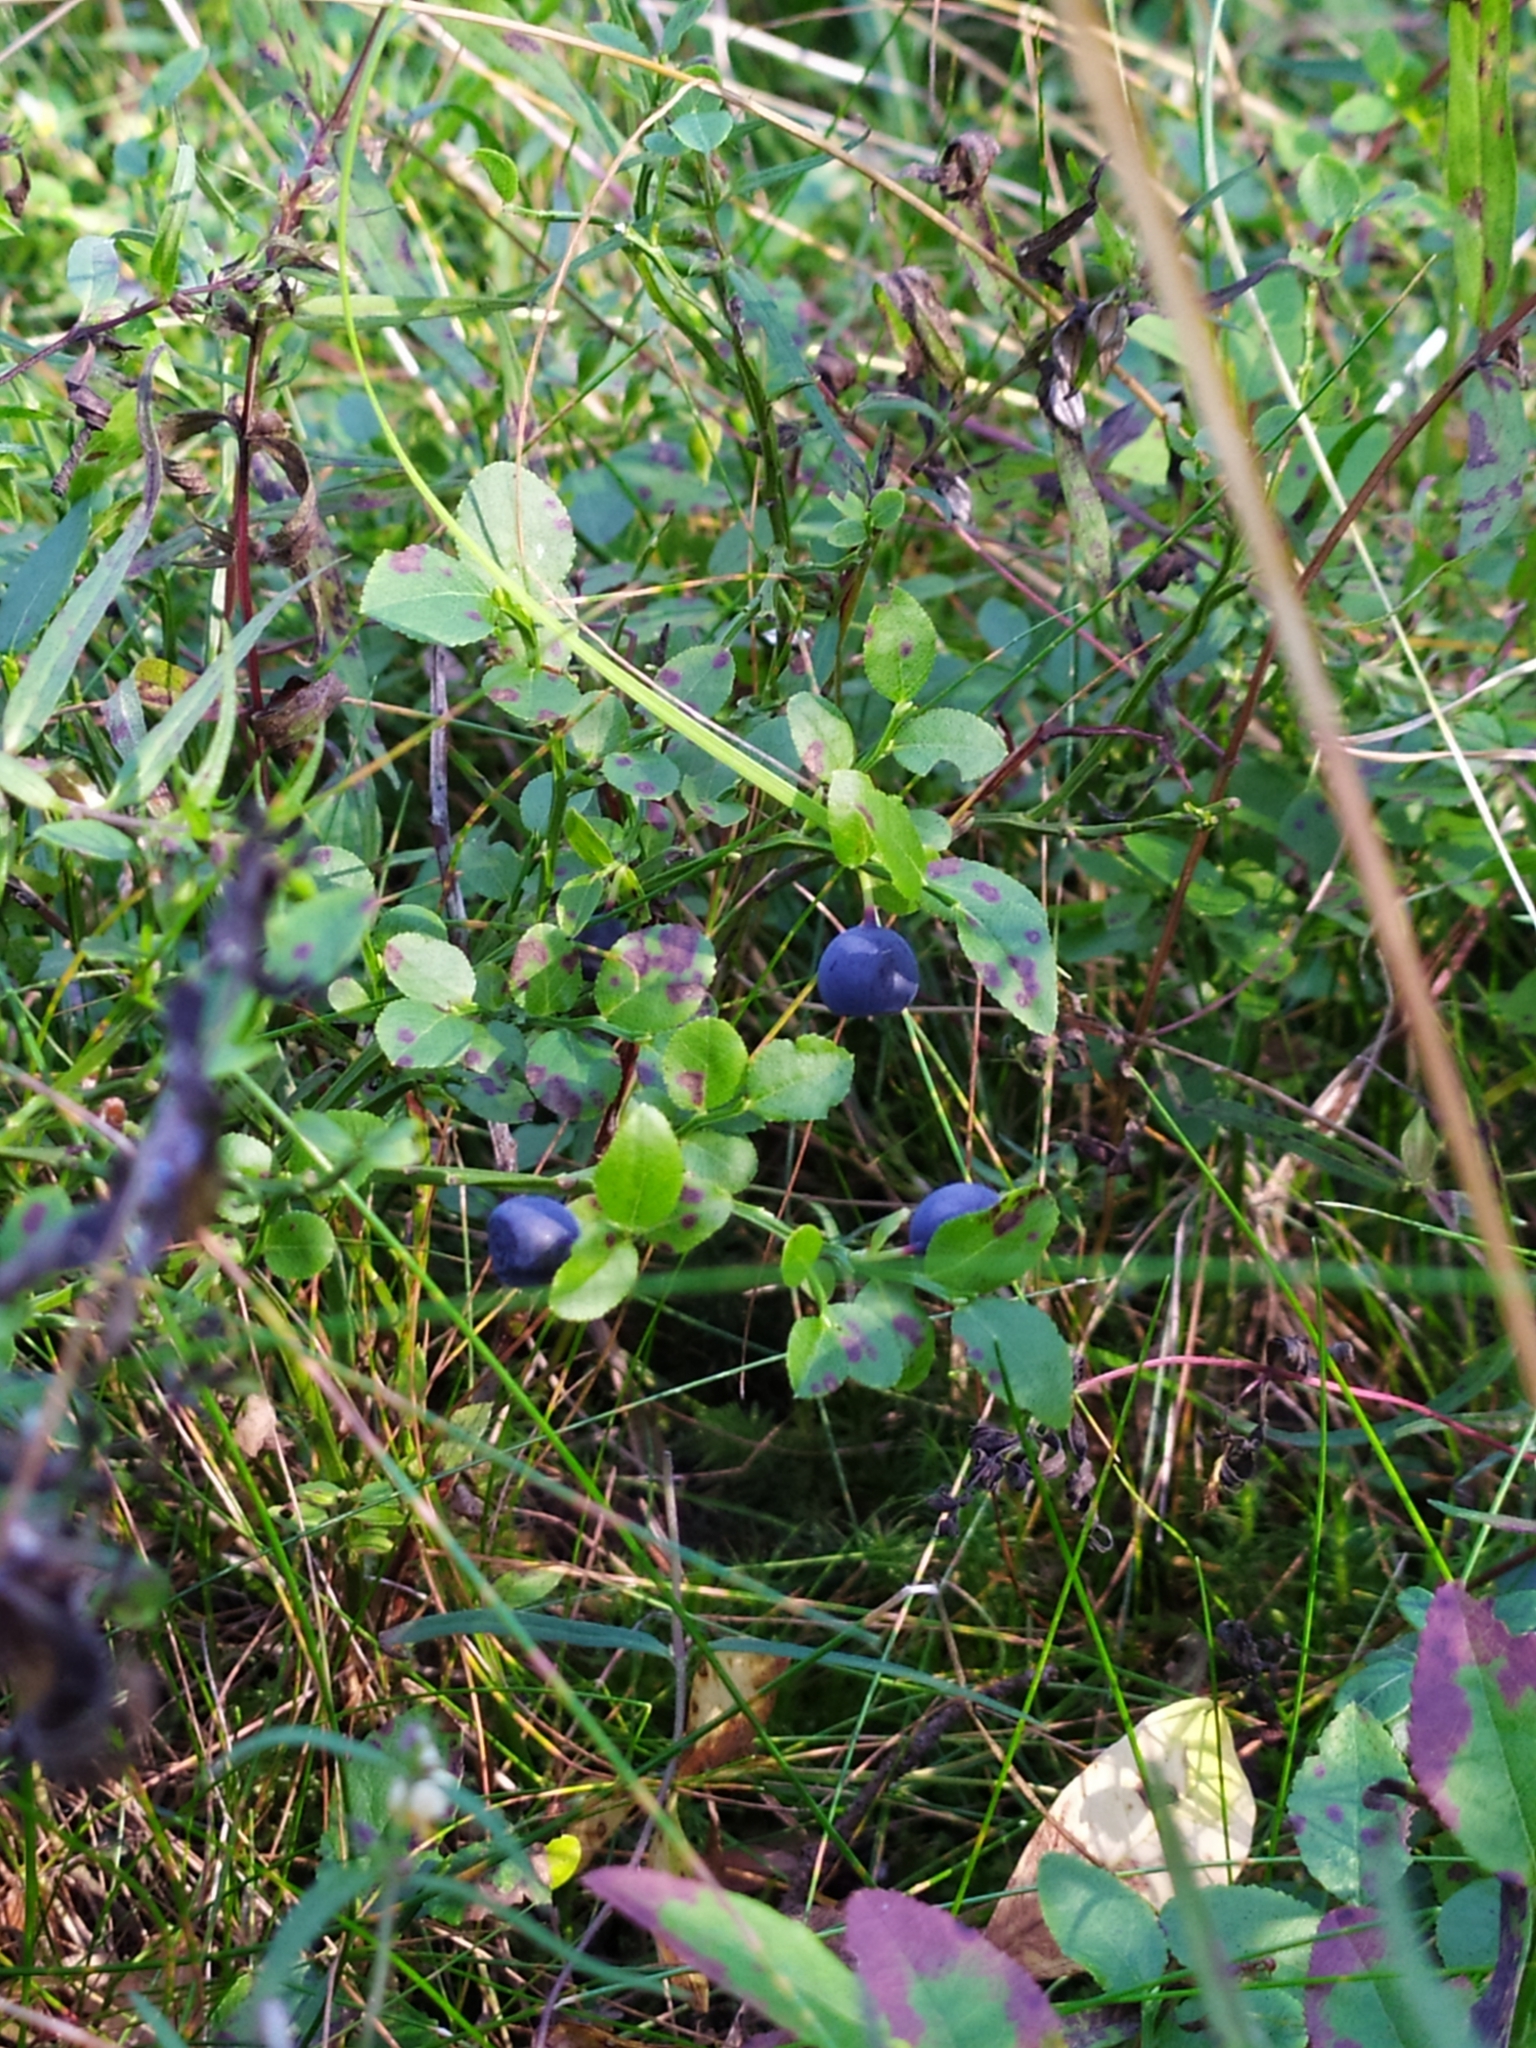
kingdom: Plantae
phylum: Tracheophyta
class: Magnoliopsida
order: Ericales
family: Ericaceae
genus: Vaccinium
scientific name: Vaccinium myrtillus
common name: Bilberry
